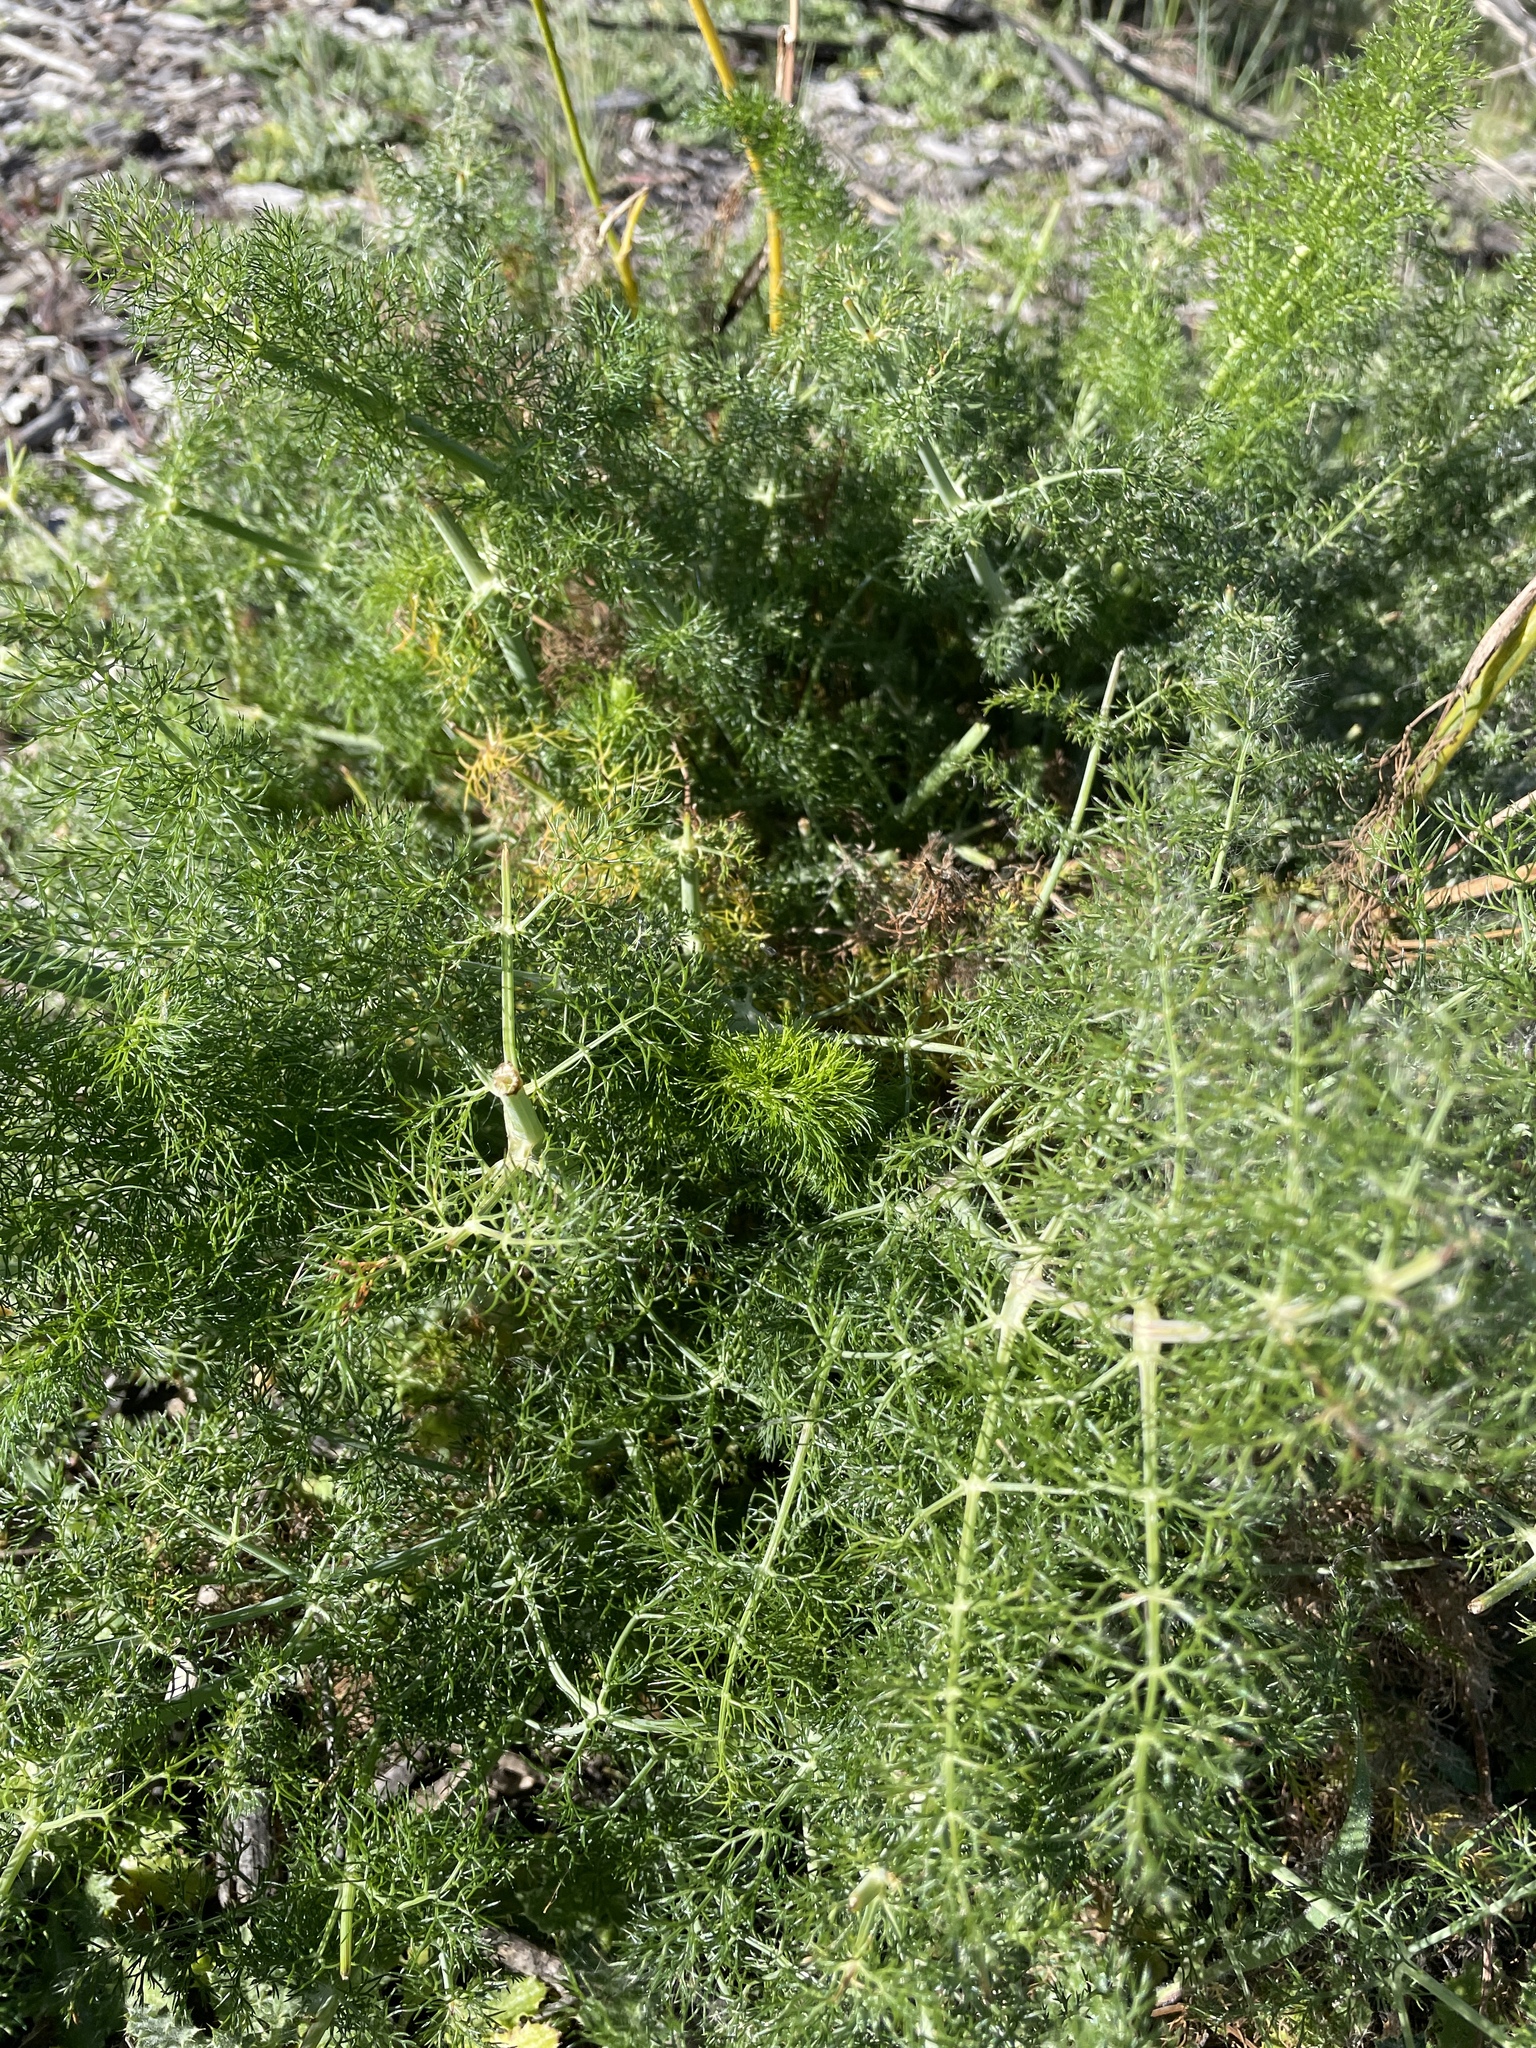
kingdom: Plantae
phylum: Tracheophyta
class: Magnoliopsida
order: Apiales
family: Apiaceae
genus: Foeniculum
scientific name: Foeniculum vulgare
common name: Fennel
